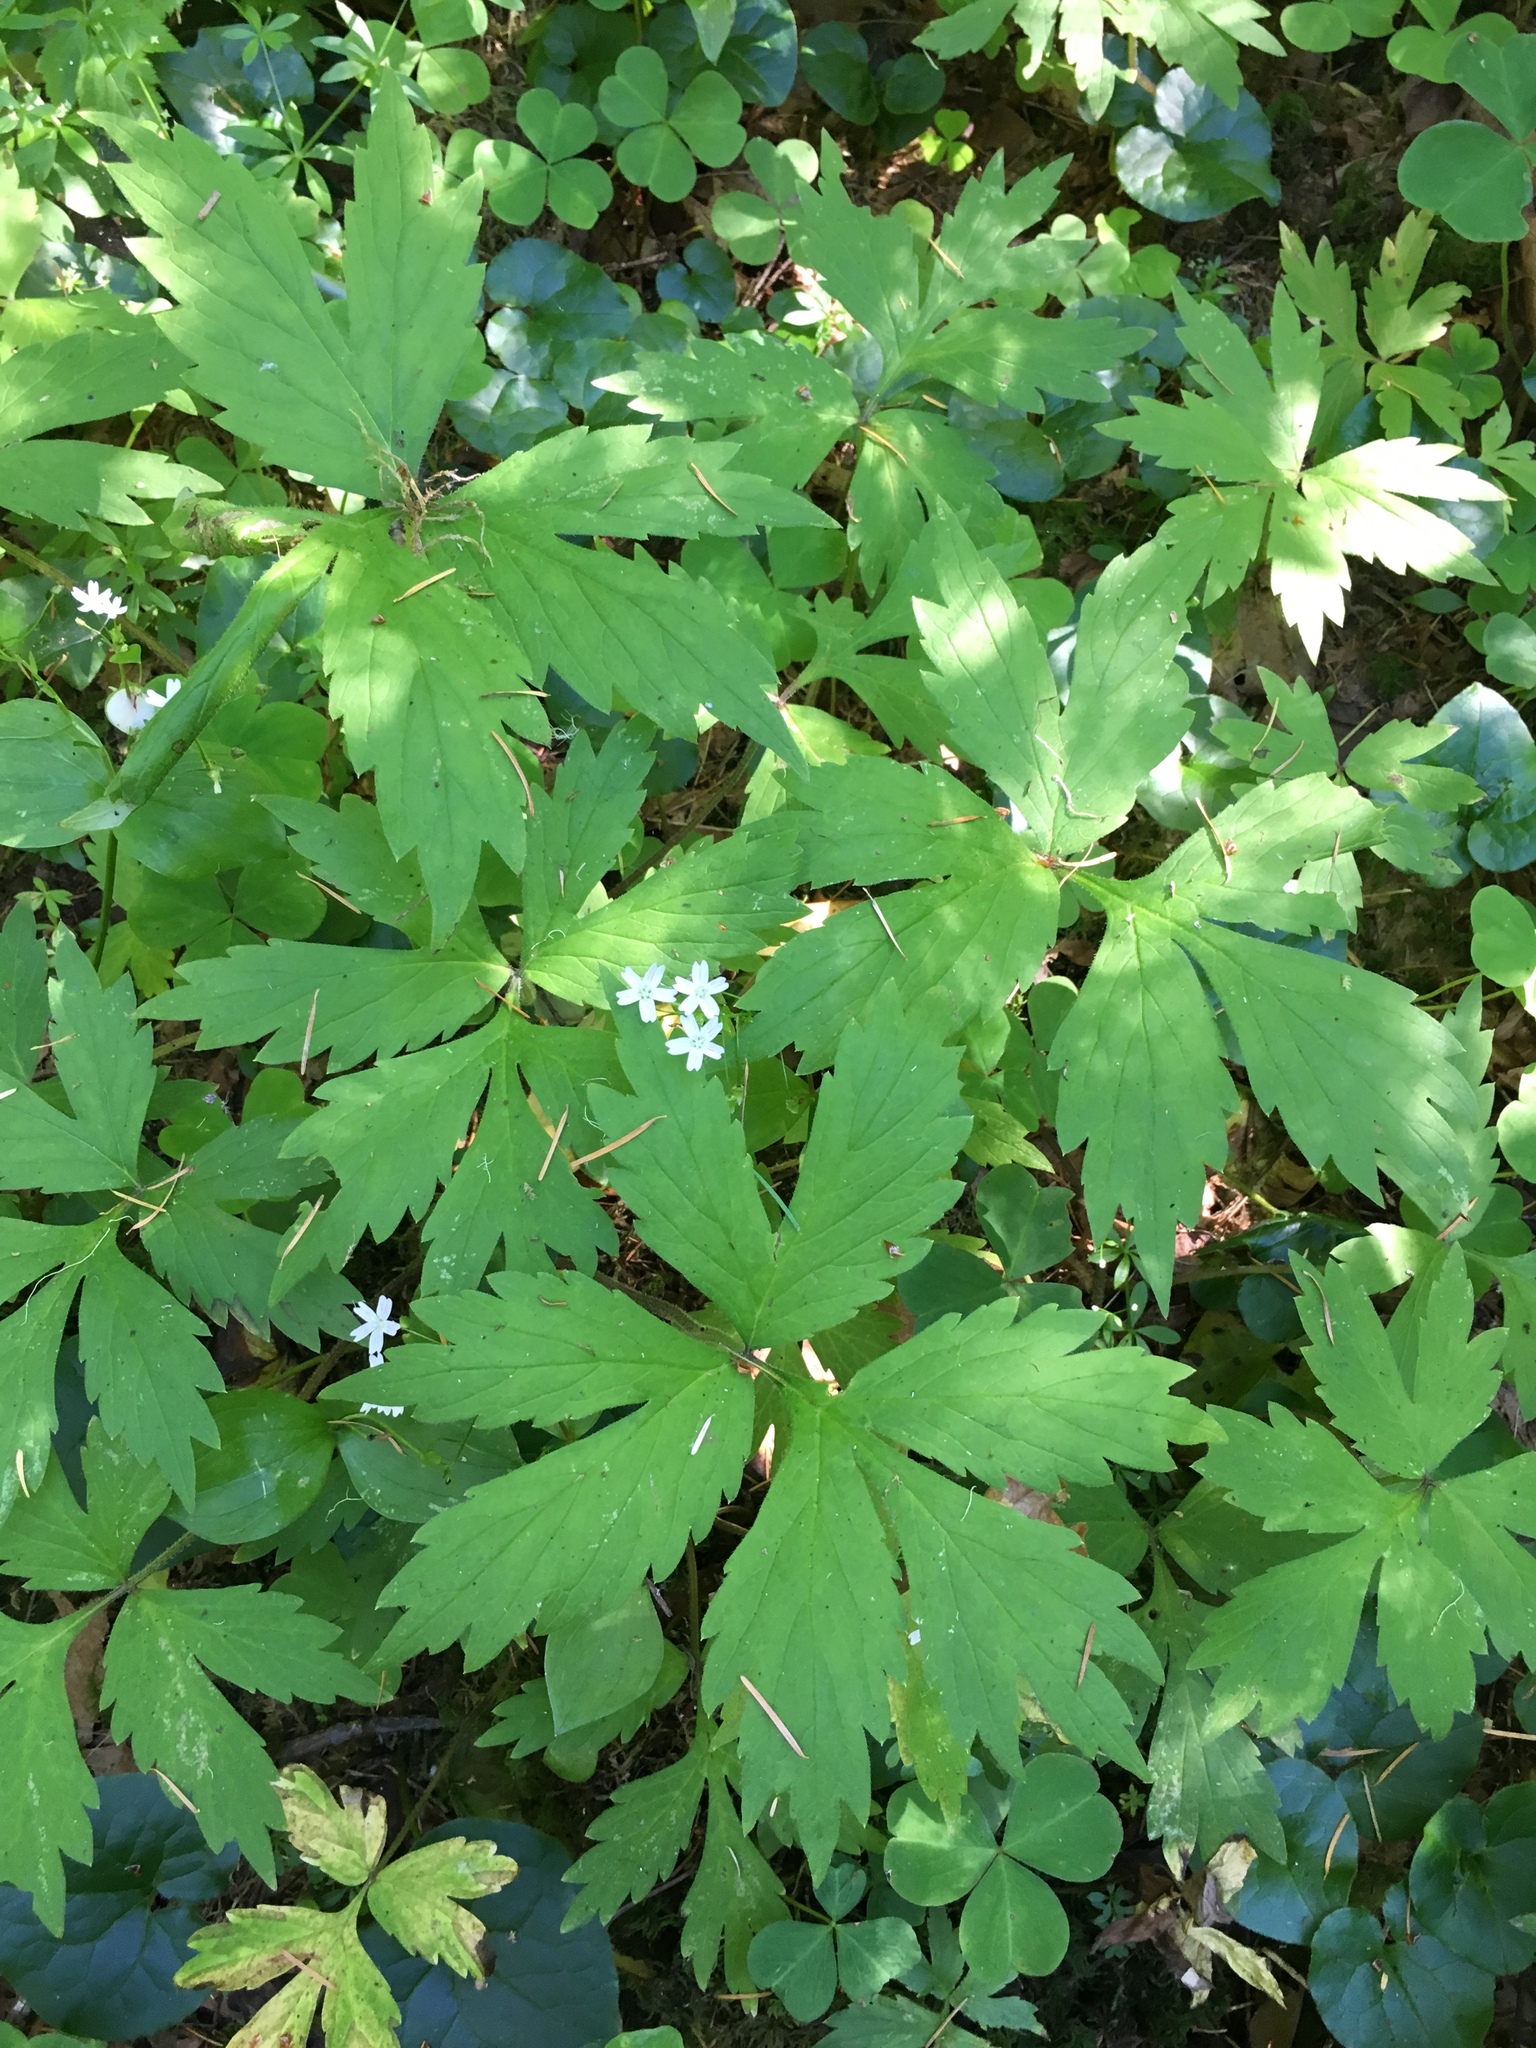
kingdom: Plantae
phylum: Tracheophyta
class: Magnoliopsida
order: Boraginales
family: Hydrophyllaceae
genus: Hydrophyllum
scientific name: Hydrophyllum tenuipes
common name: Pacific waterleaf
